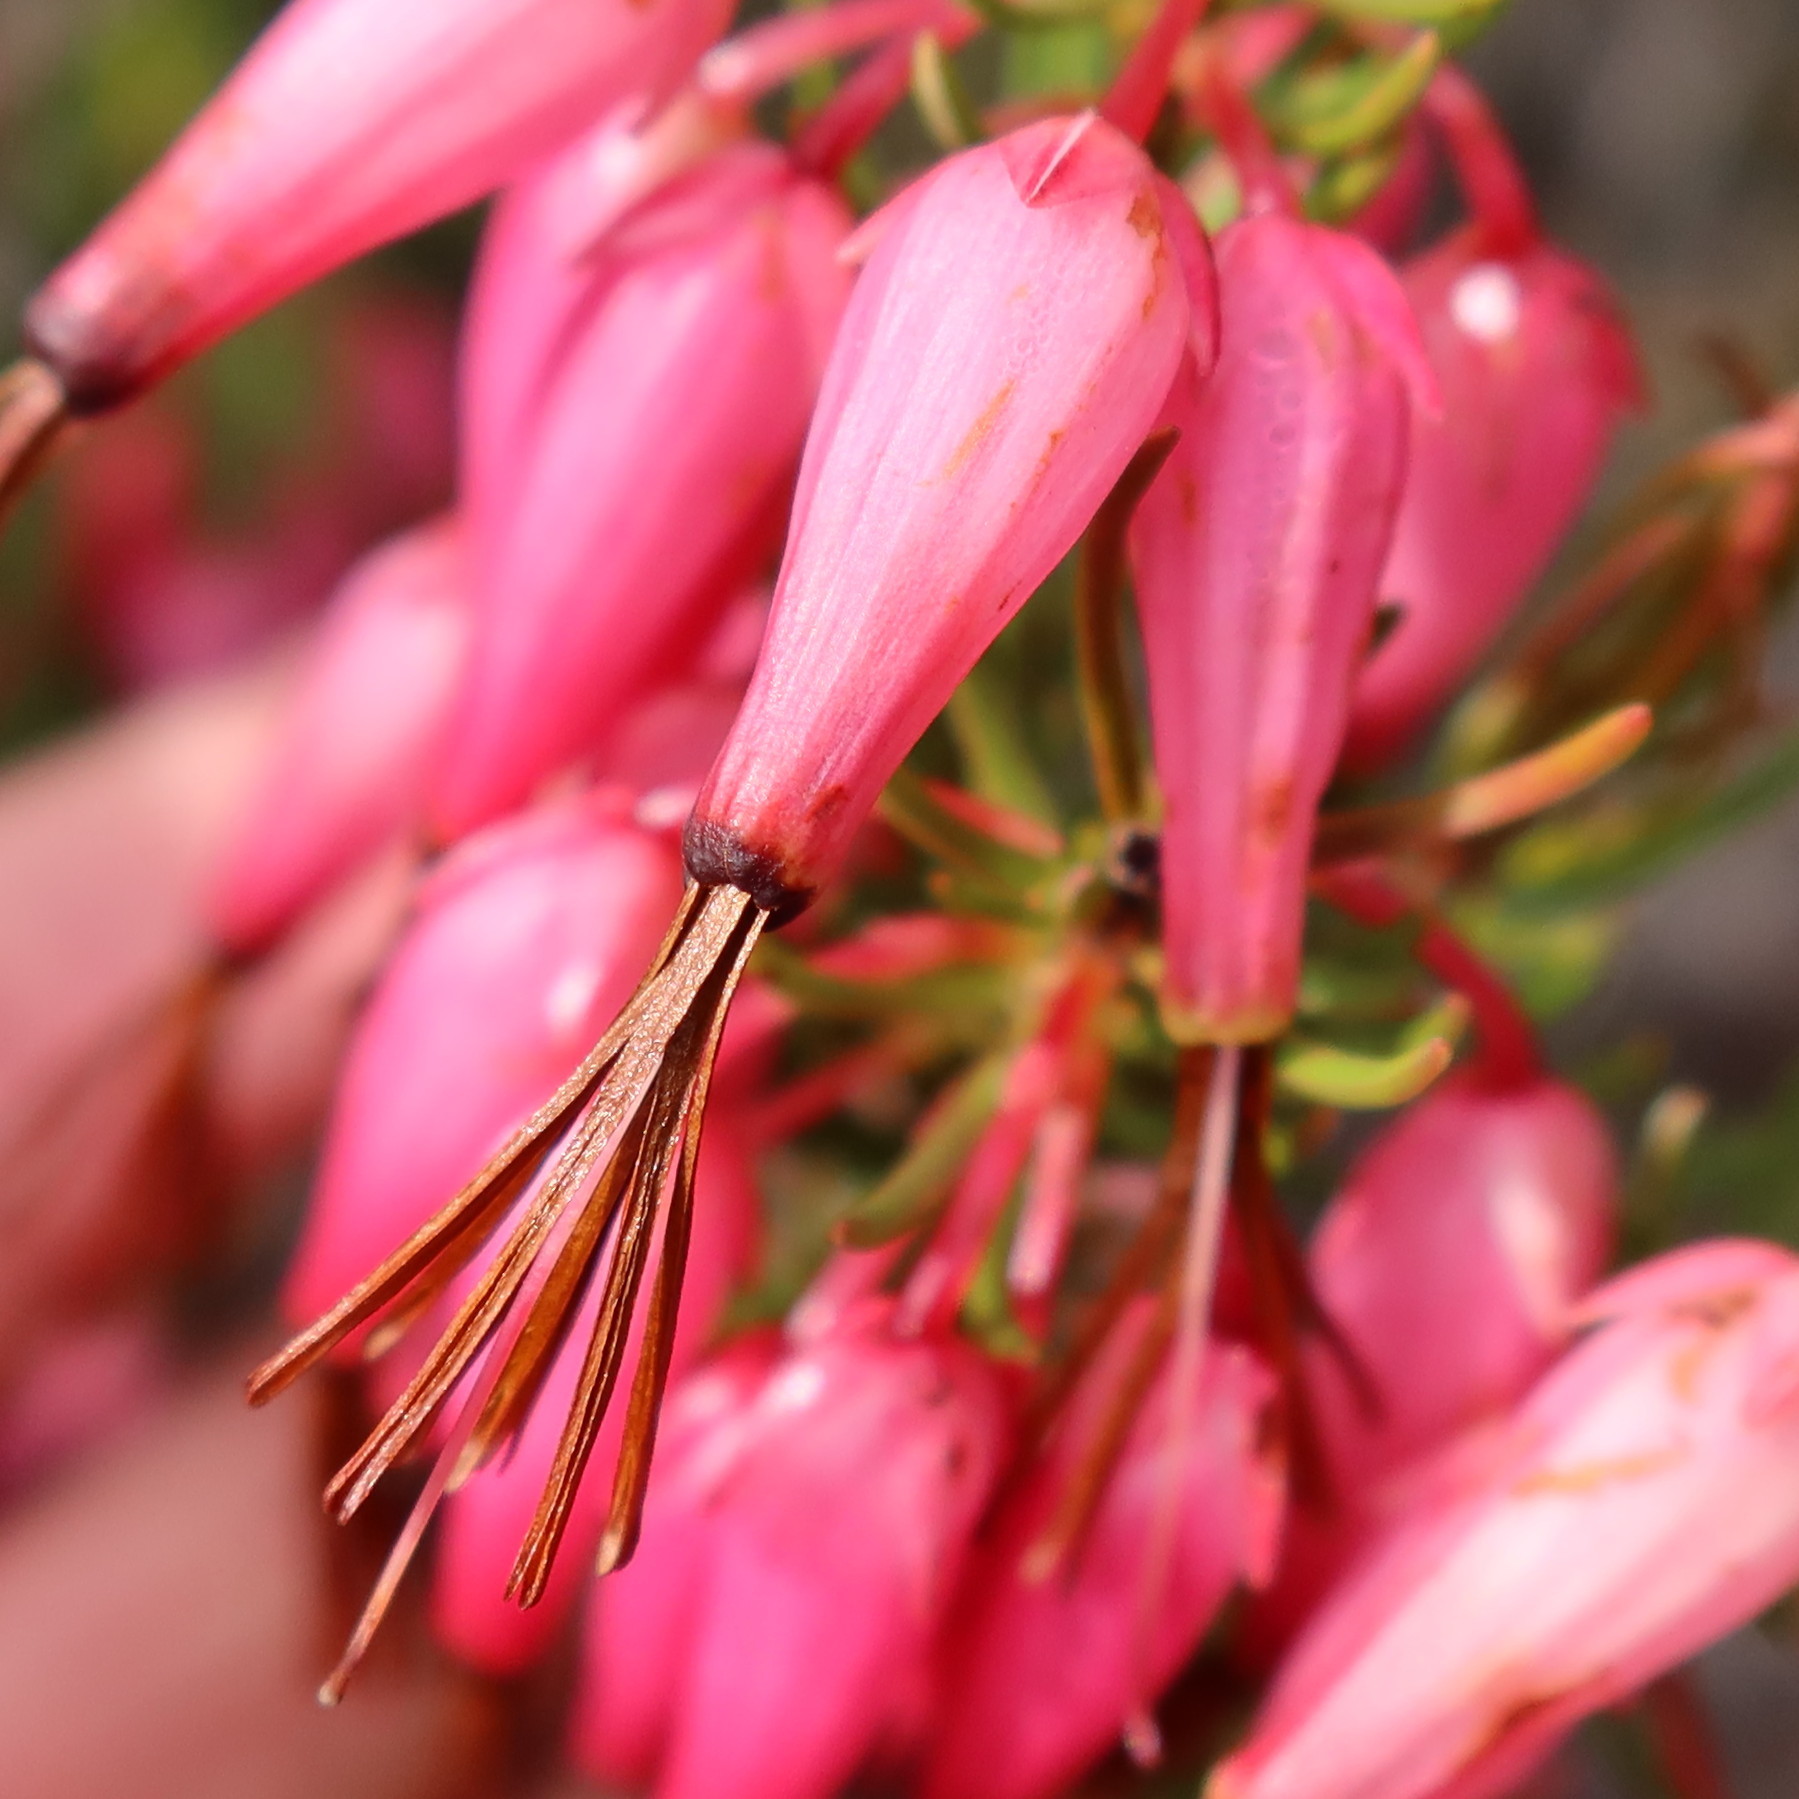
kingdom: Plantae
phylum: Tracheophyta
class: Magnoliopsida
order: Ericales
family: Ericaceae
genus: Erica
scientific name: Erica plukenetii
